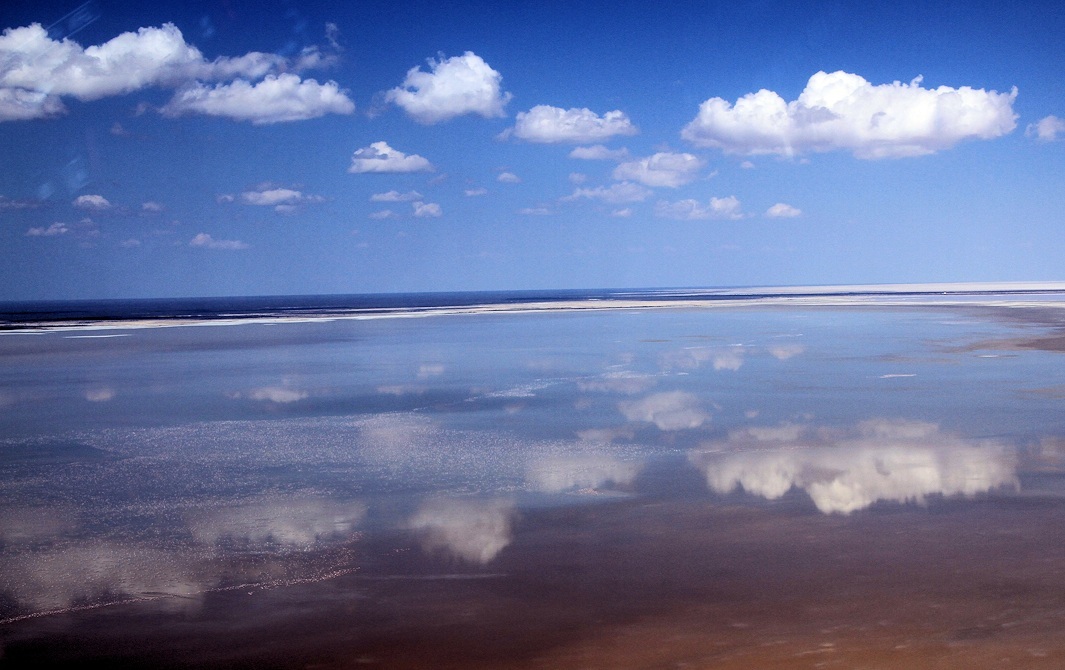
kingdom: Animalia
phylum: Chordata
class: Aves
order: Phoenicopteriformes
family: Phoenicopteridae
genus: Phoenicopterus
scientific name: Phoenicopterus roseus
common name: Greater flamingo
